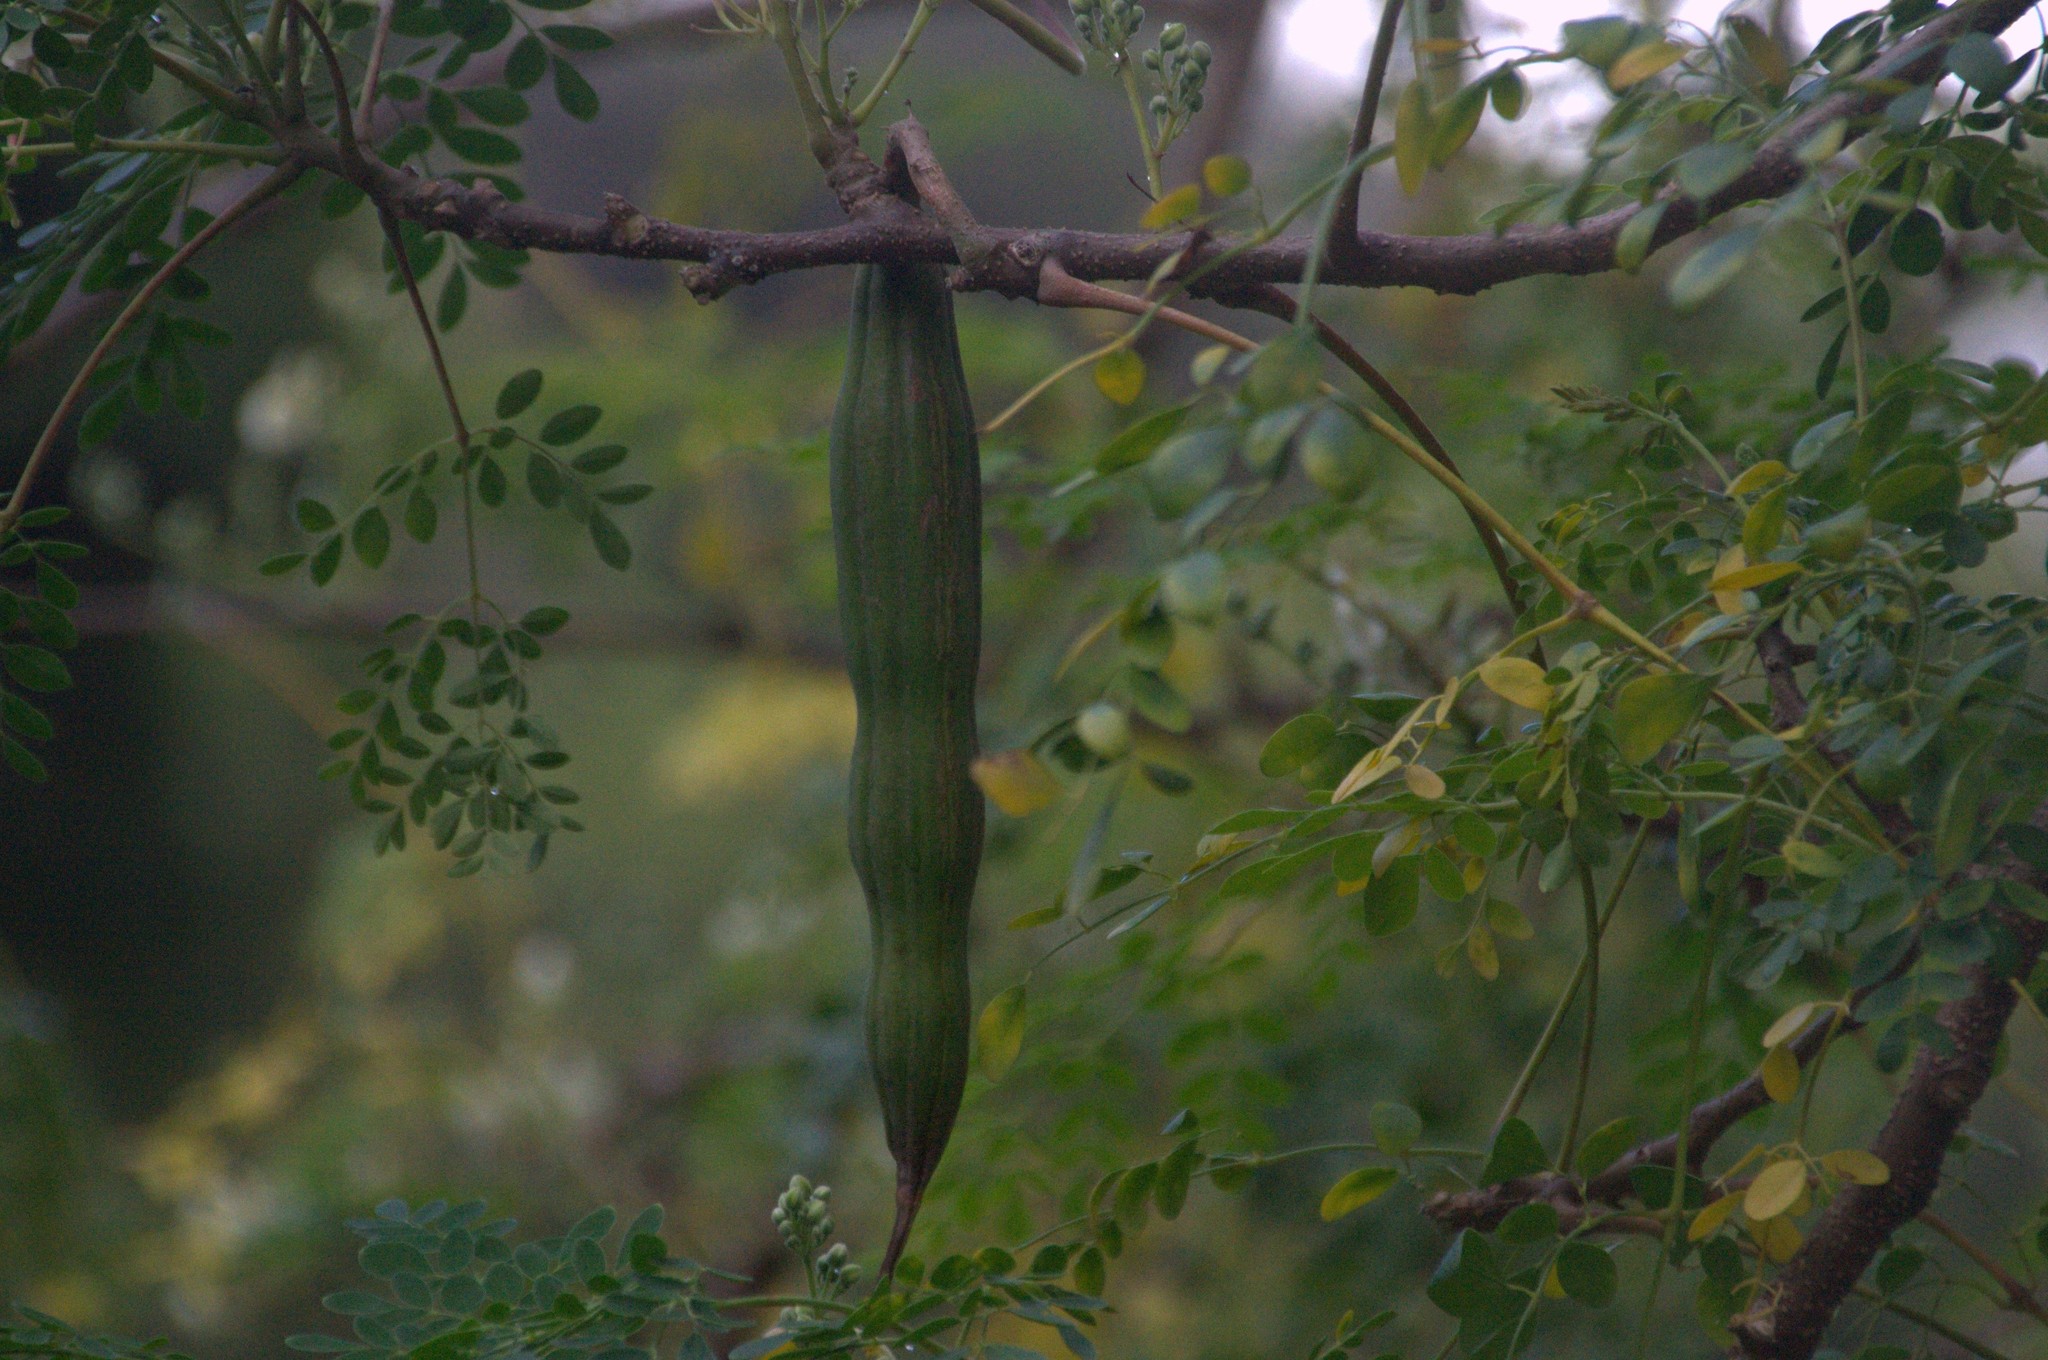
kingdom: Plantae
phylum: Tracheophyta
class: Magnoliopsida
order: Brassicales
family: Moringaceae
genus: Moringa
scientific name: Moringa oleifera
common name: Horseradish-tree
